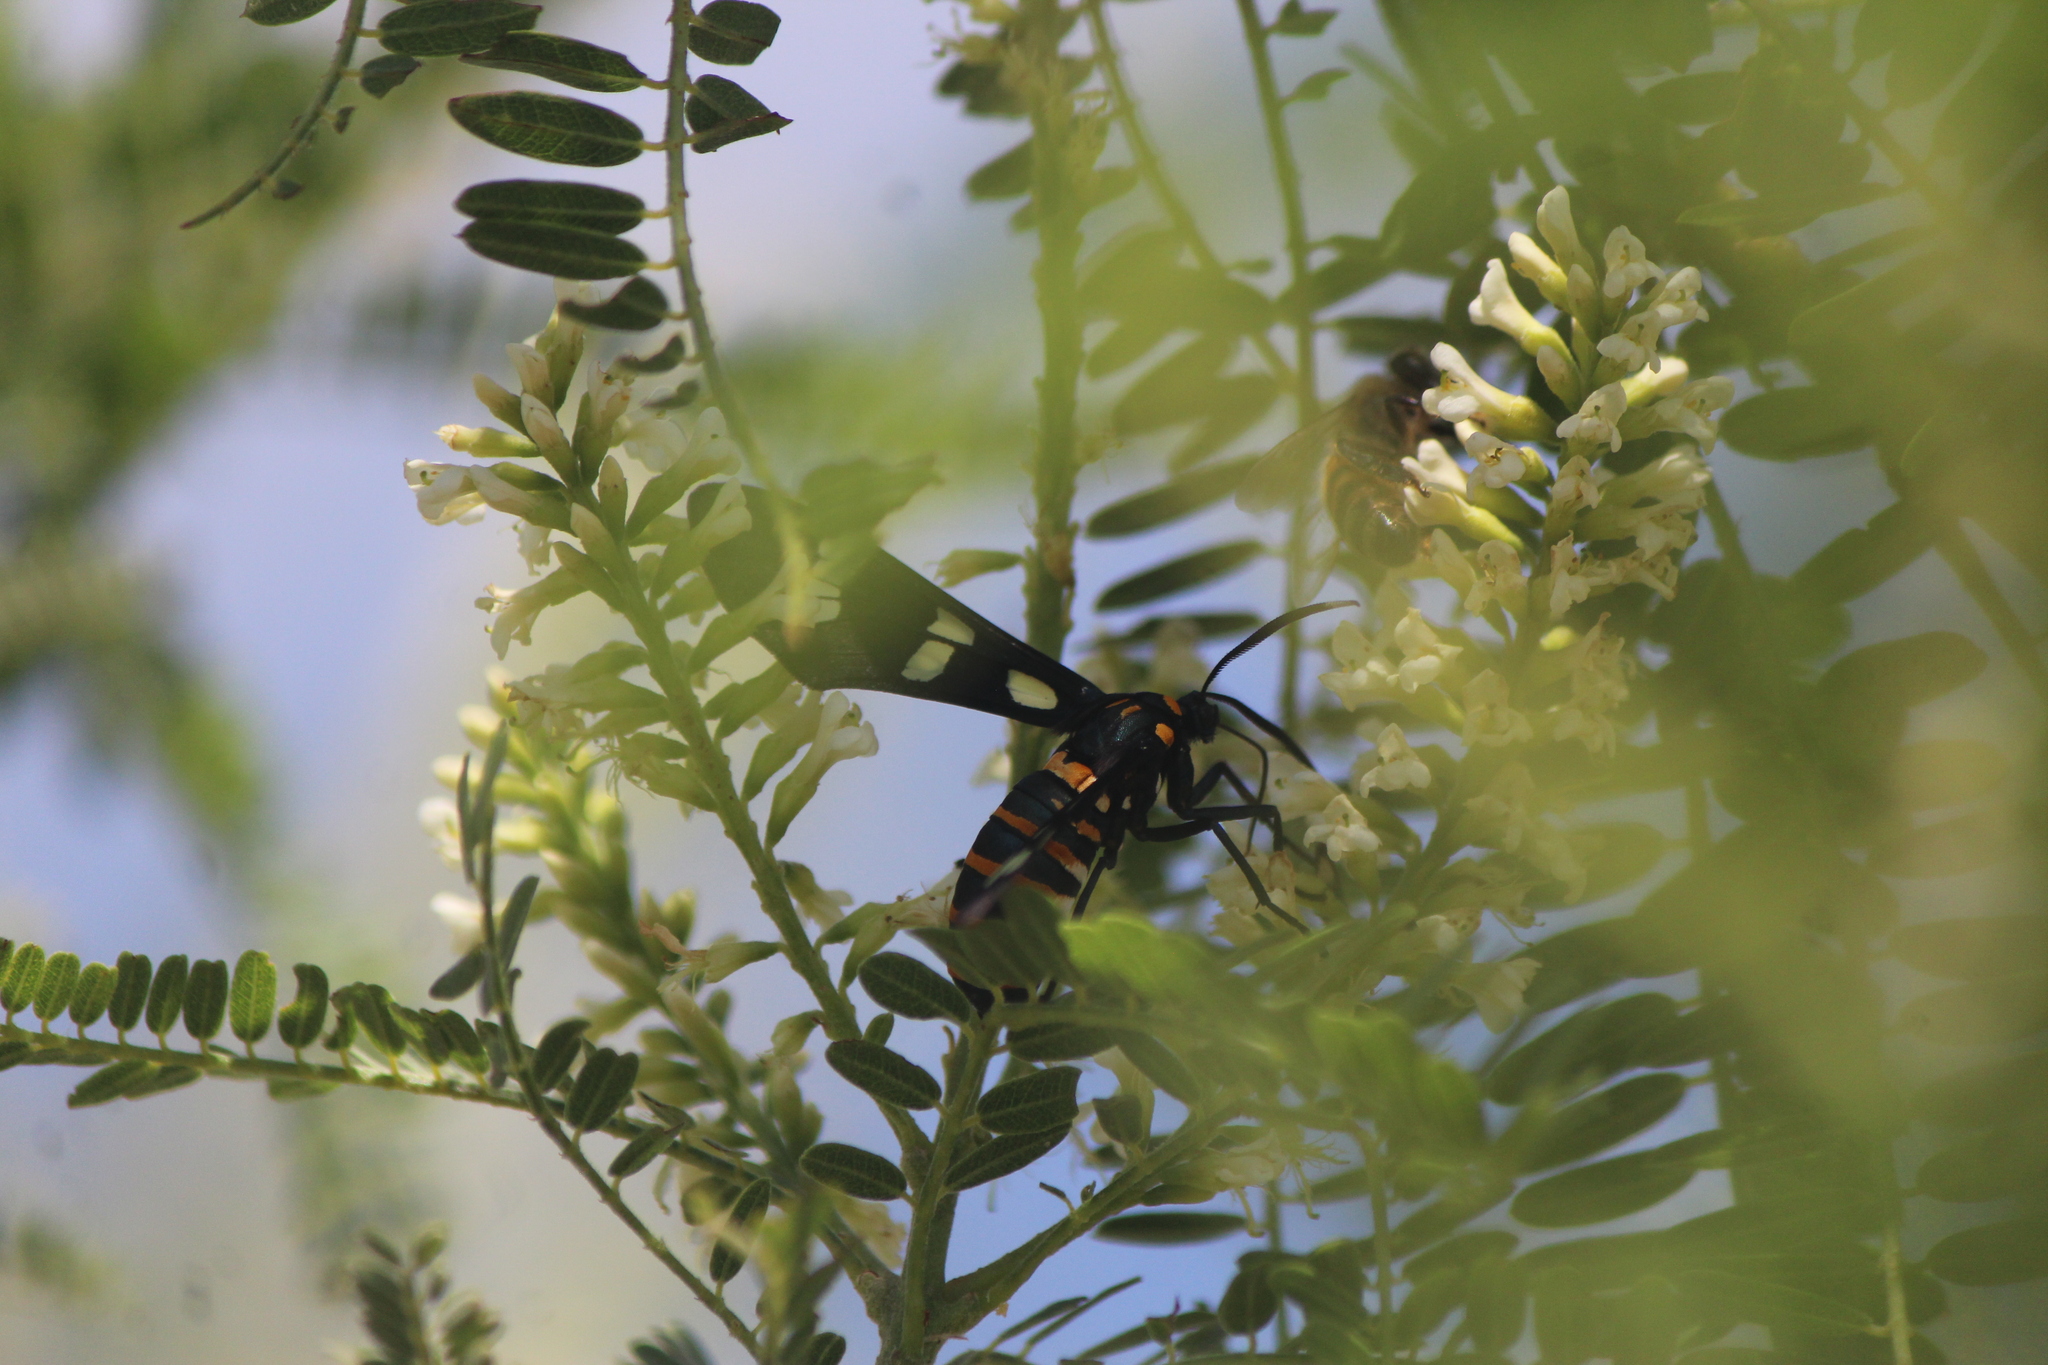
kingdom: Animalia
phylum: Arthropoda
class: Insecta
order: Lepidoptera
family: Erebidae
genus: Syntomeida
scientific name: Syntomeida melanthus
